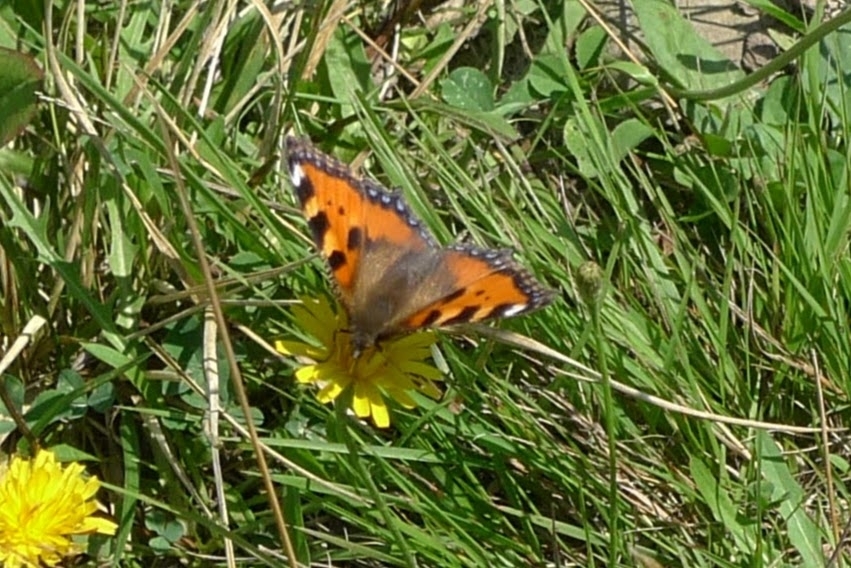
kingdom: Animalia
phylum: Arthropoda
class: Insecta
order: Lepidoptera
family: Nymphalidae
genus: Aglais
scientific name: Aglais urticae
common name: Small tortoiseshell
